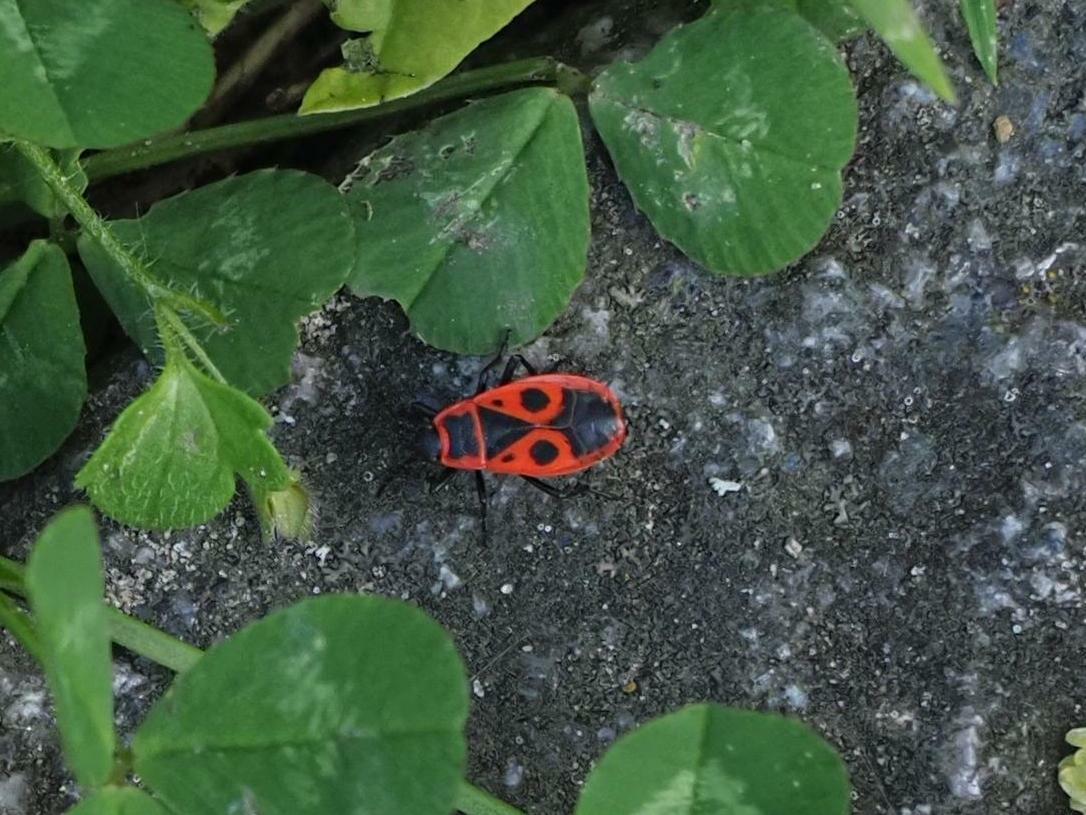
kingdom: Animalia
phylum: Arthropoda
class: Insecta
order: Hemiptera
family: Pyrrhocoridae
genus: Pyrrhocoris
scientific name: Pyrrhocoris apterus
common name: Firebug
